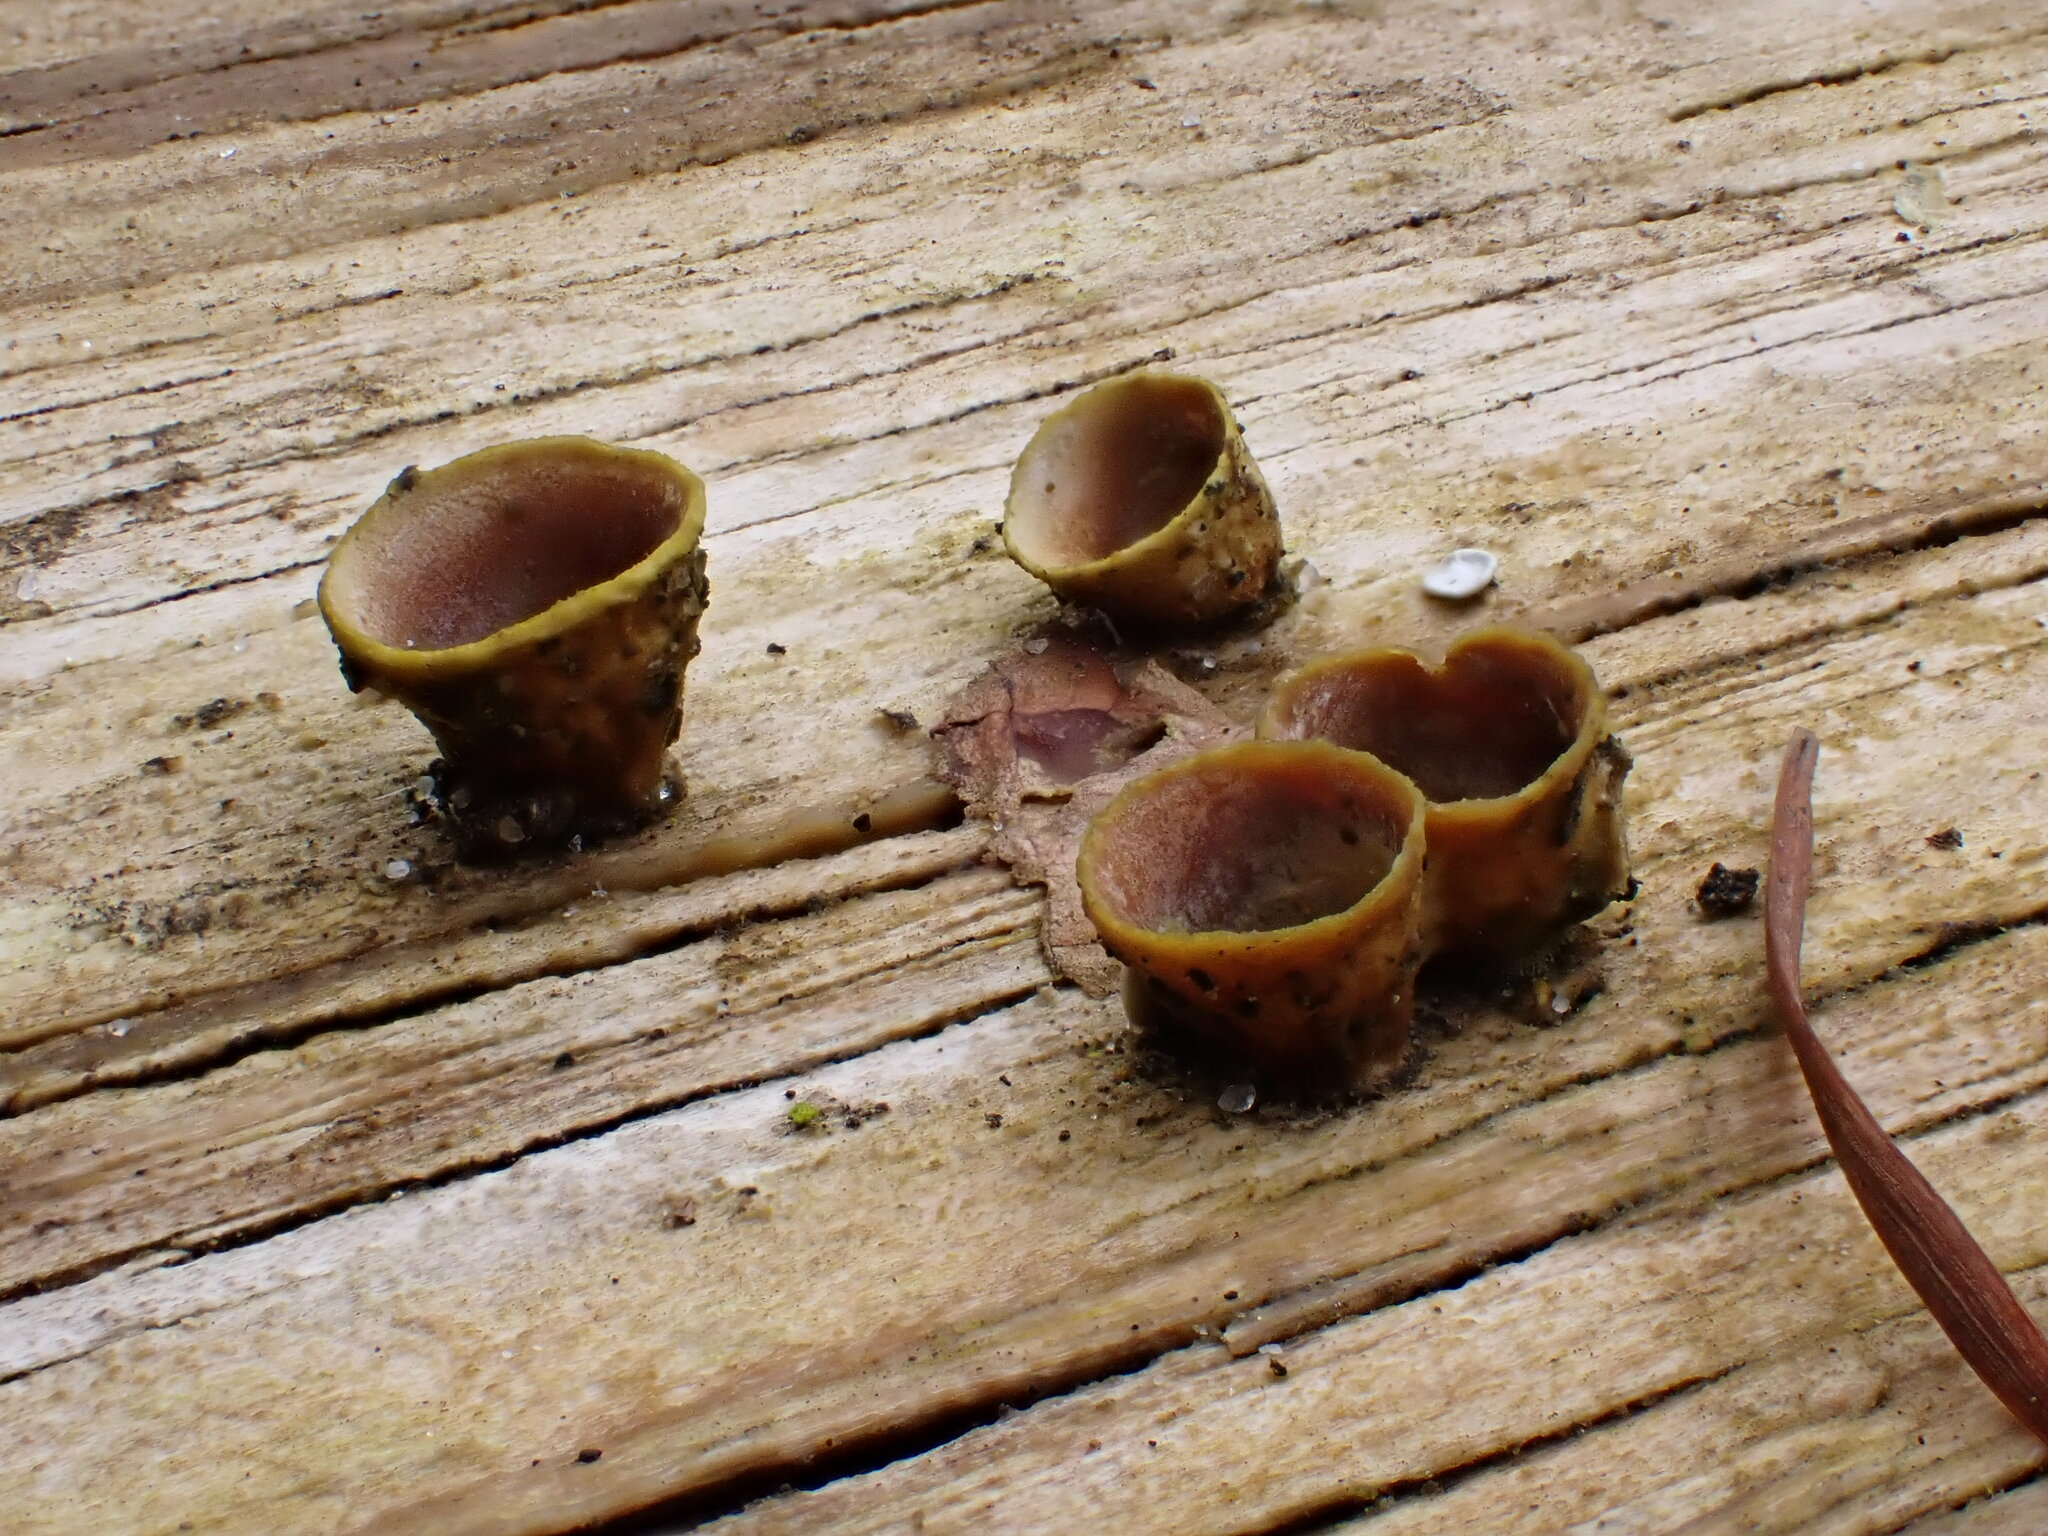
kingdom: Fungi
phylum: Basidiomycota
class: Agaricomycetes
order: Agaricales
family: Nidulariaceae
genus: Crucibulum
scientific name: Crucibulum laeve
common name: Common bird's nest
